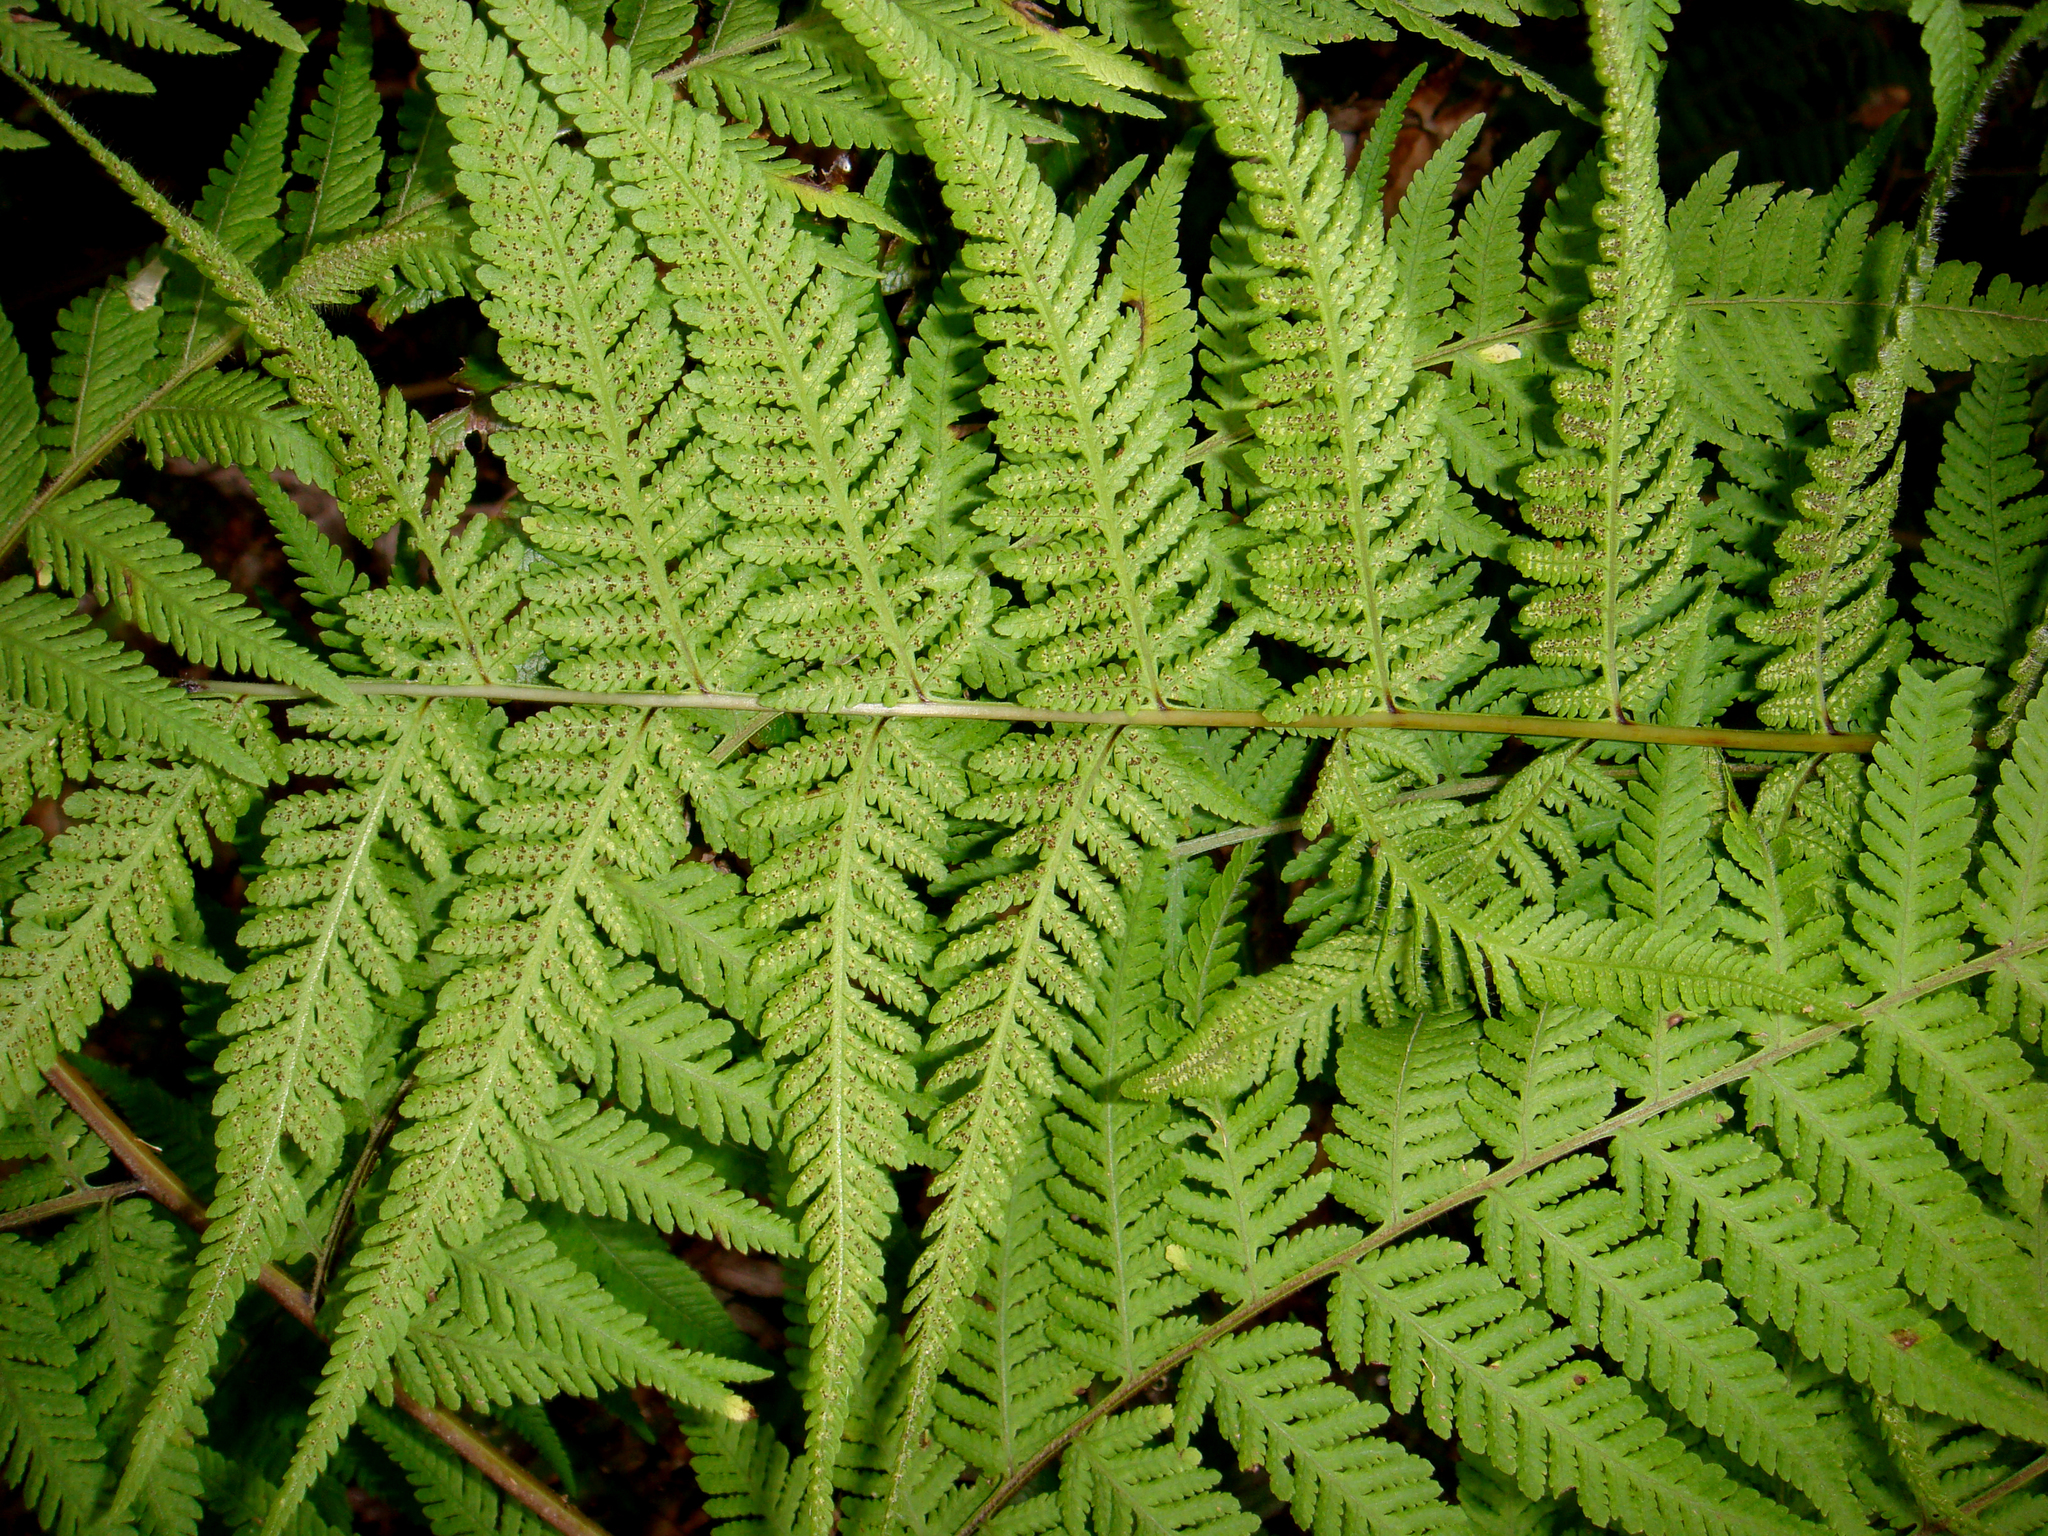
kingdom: Plantae
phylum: Tracheophyta
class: Polypodiopsida
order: Polypodiales
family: Thelypteridaceae
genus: Macrothelypteris
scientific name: Macrothelypteris torresiana
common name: Swordfern
